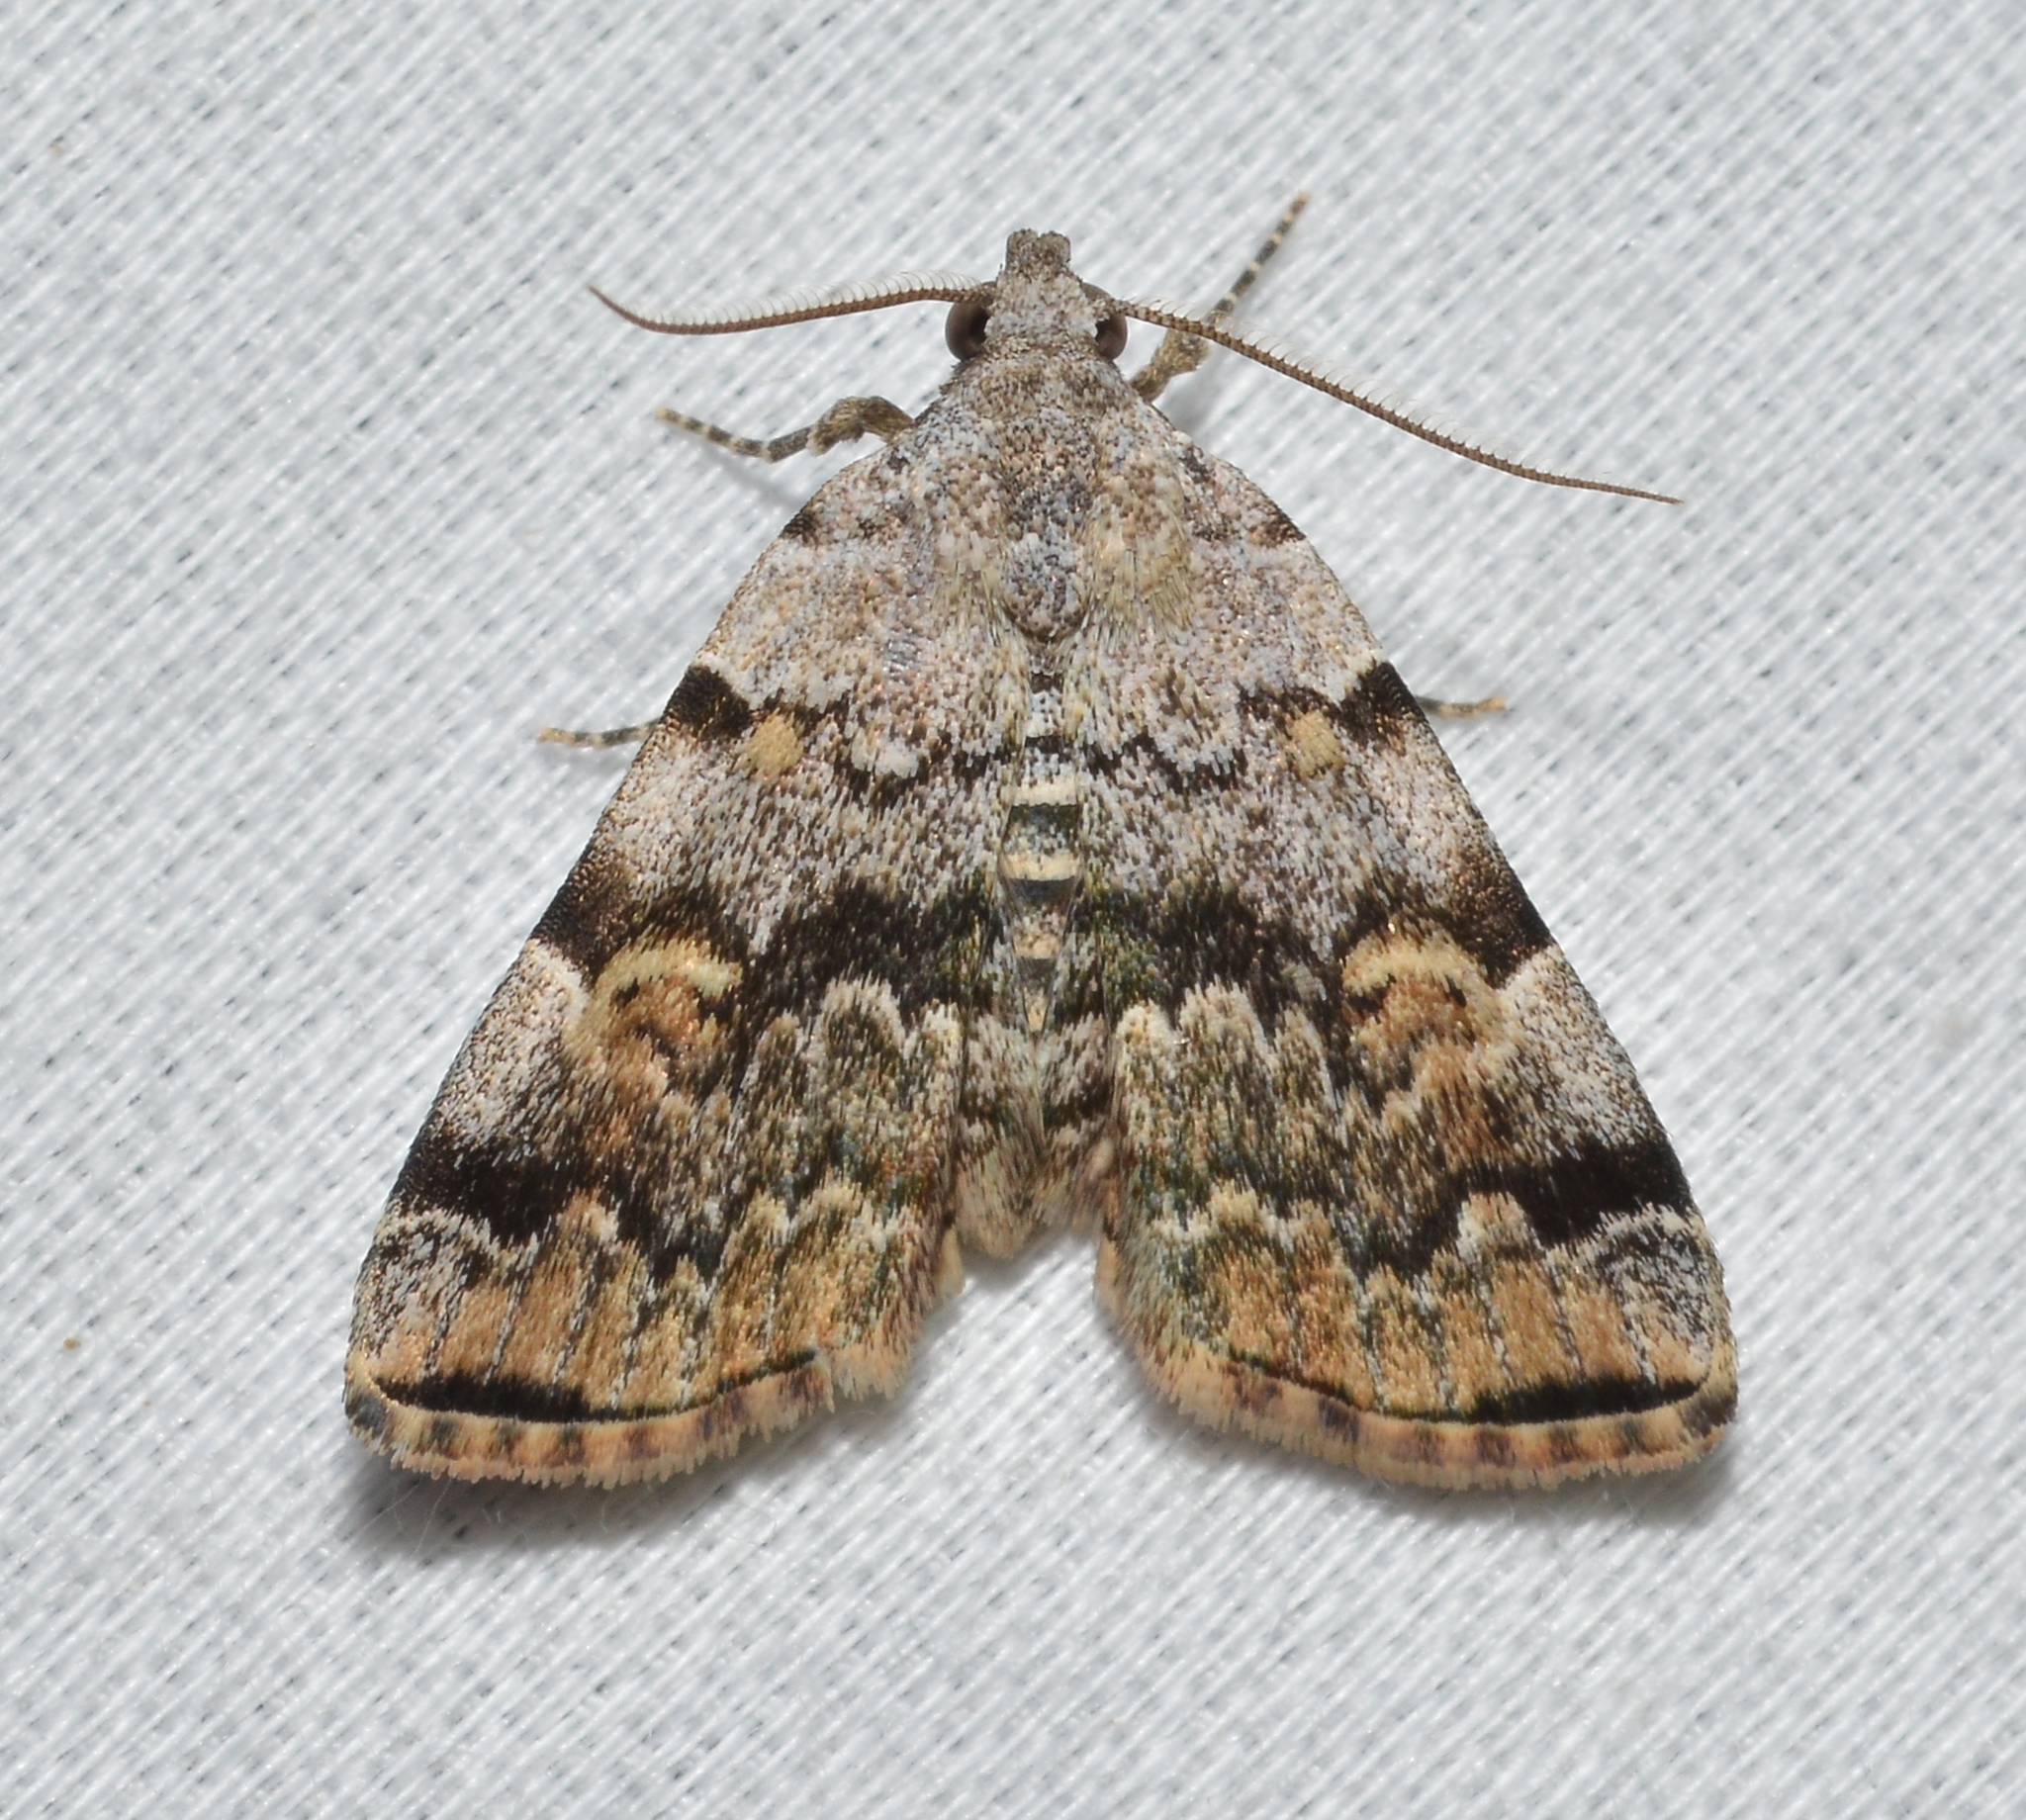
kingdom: Animalia
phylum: Arthropoda
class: Insecta
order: Lepidoptera
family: Erebidae
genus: Idia
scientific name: Idia americalis
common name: American idia moth
